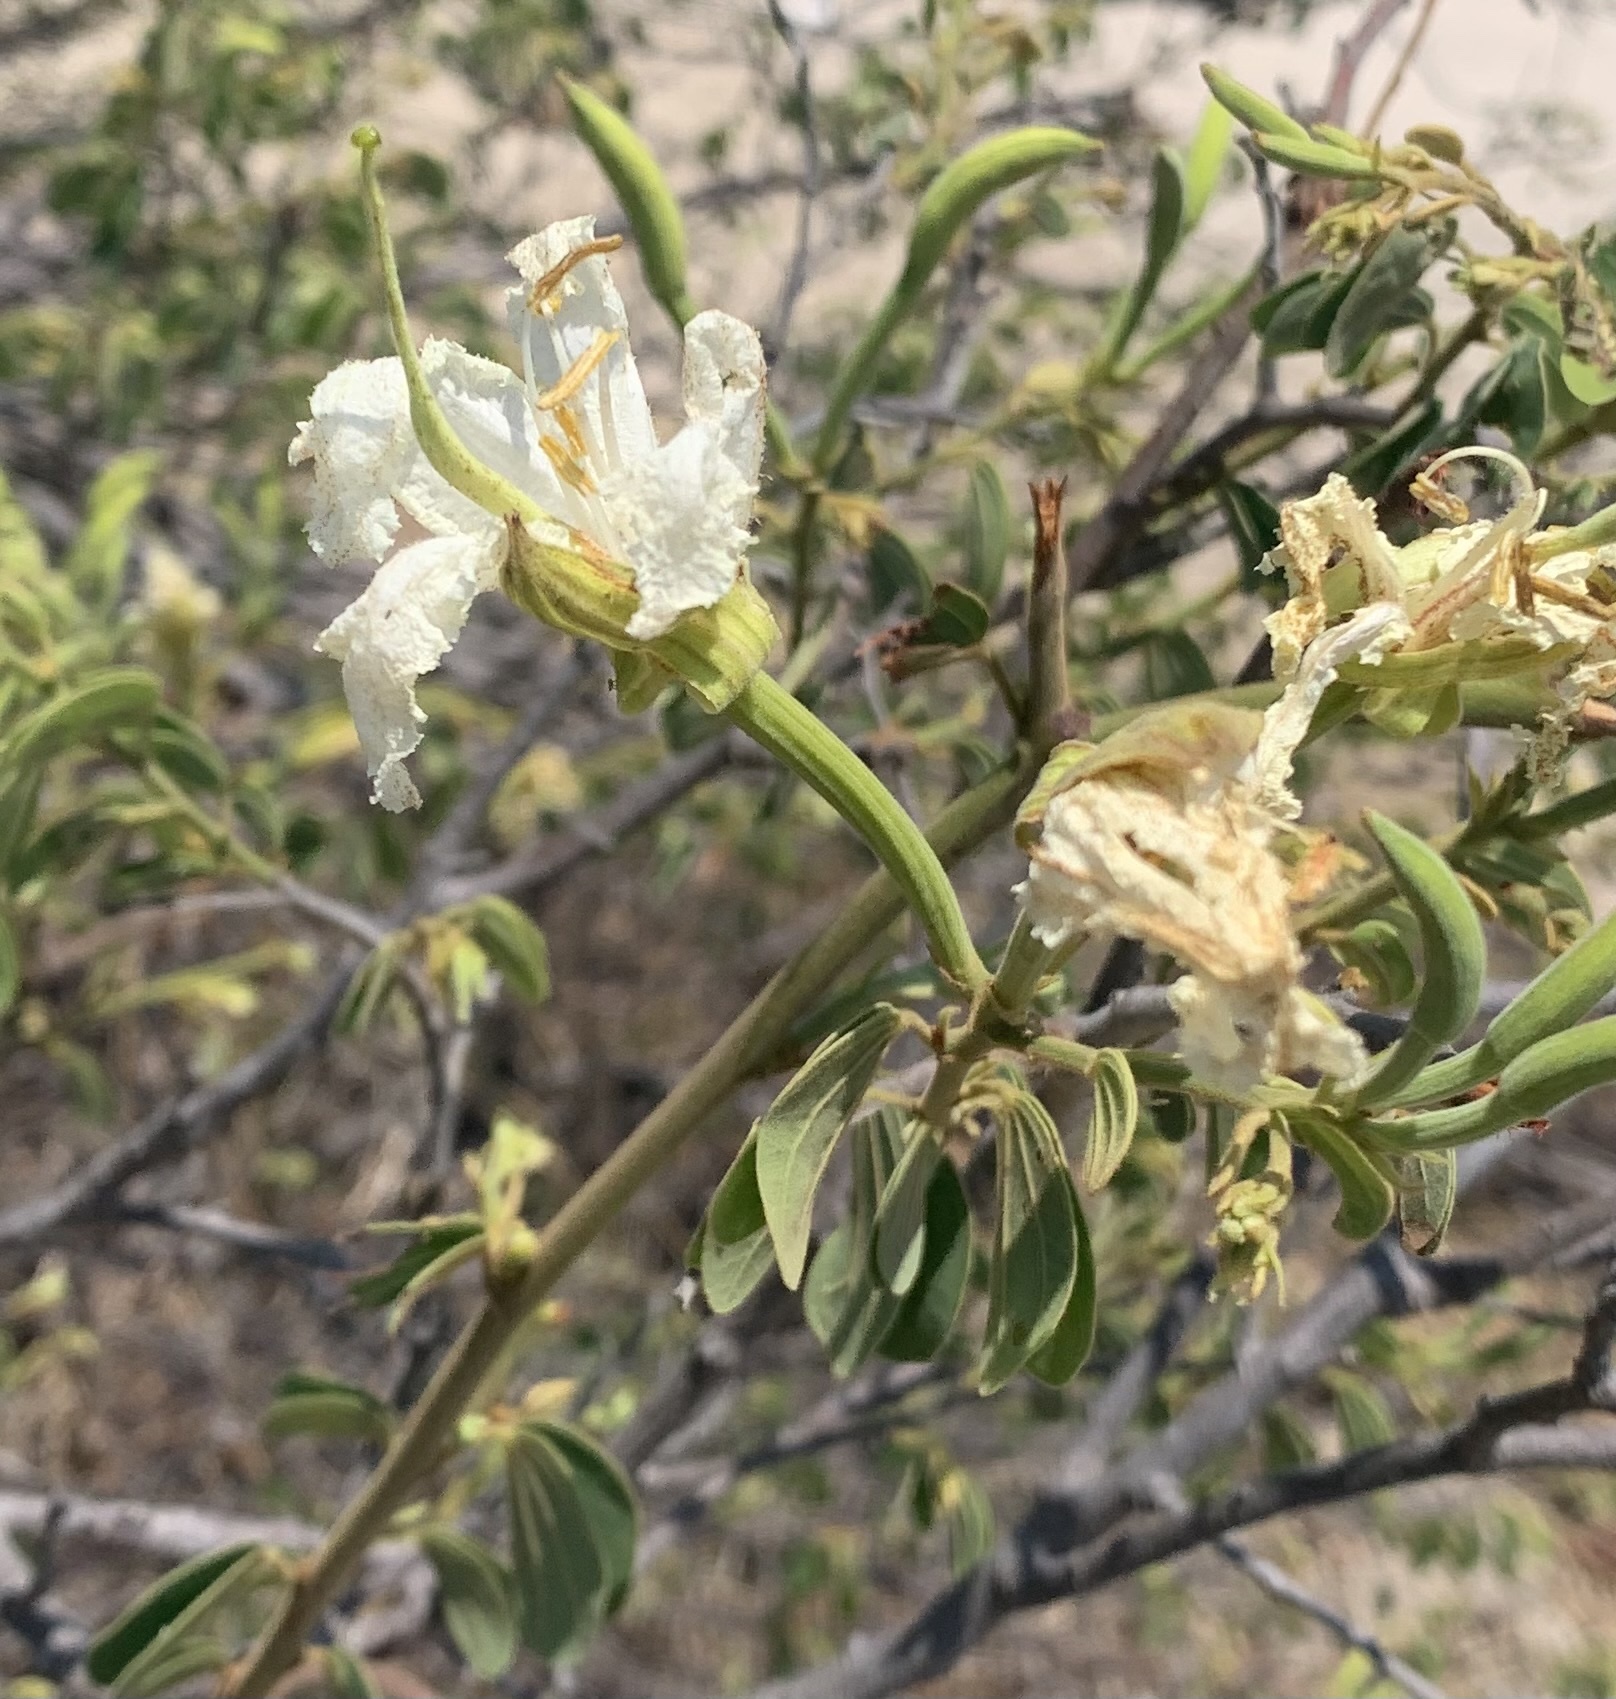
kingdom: Plantae
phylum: Tracheophyta
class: Magnoliopsida
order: Fabales
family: Fabaceae
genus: Bauhinia
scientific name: Bauhinia petersiana
